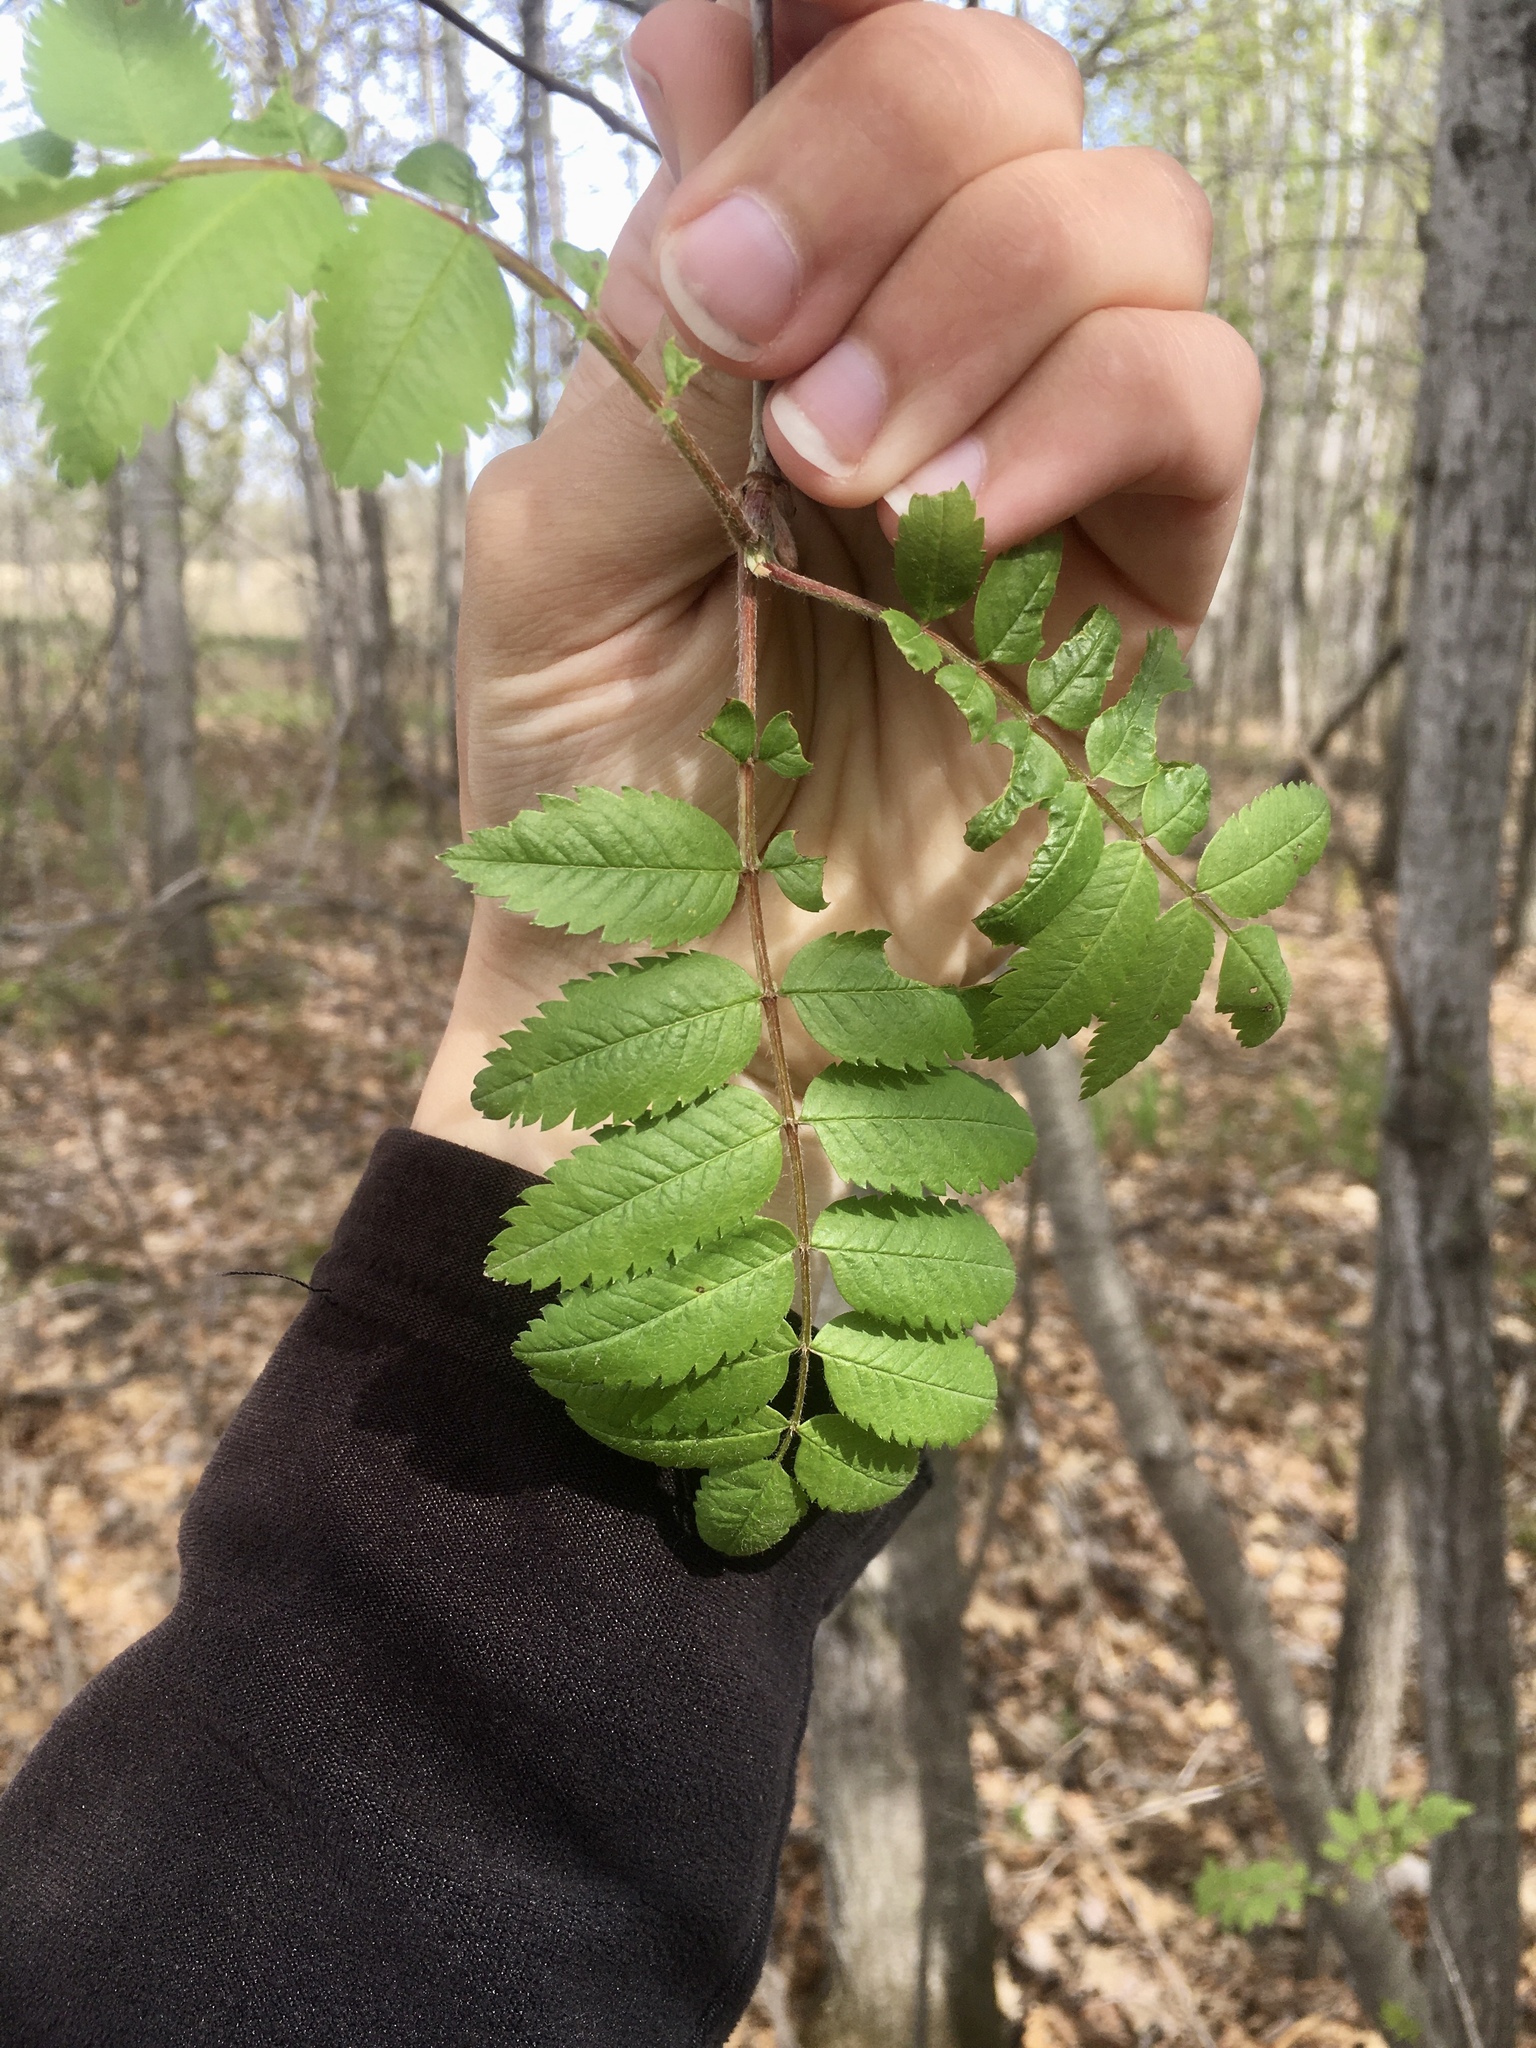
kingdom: Plantae
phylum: Tracheophyta
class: Magnoliopsida
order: Rosales
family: Rosaceae
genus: Sorbus
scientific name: Sorbus aucuparia
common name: Rowan
